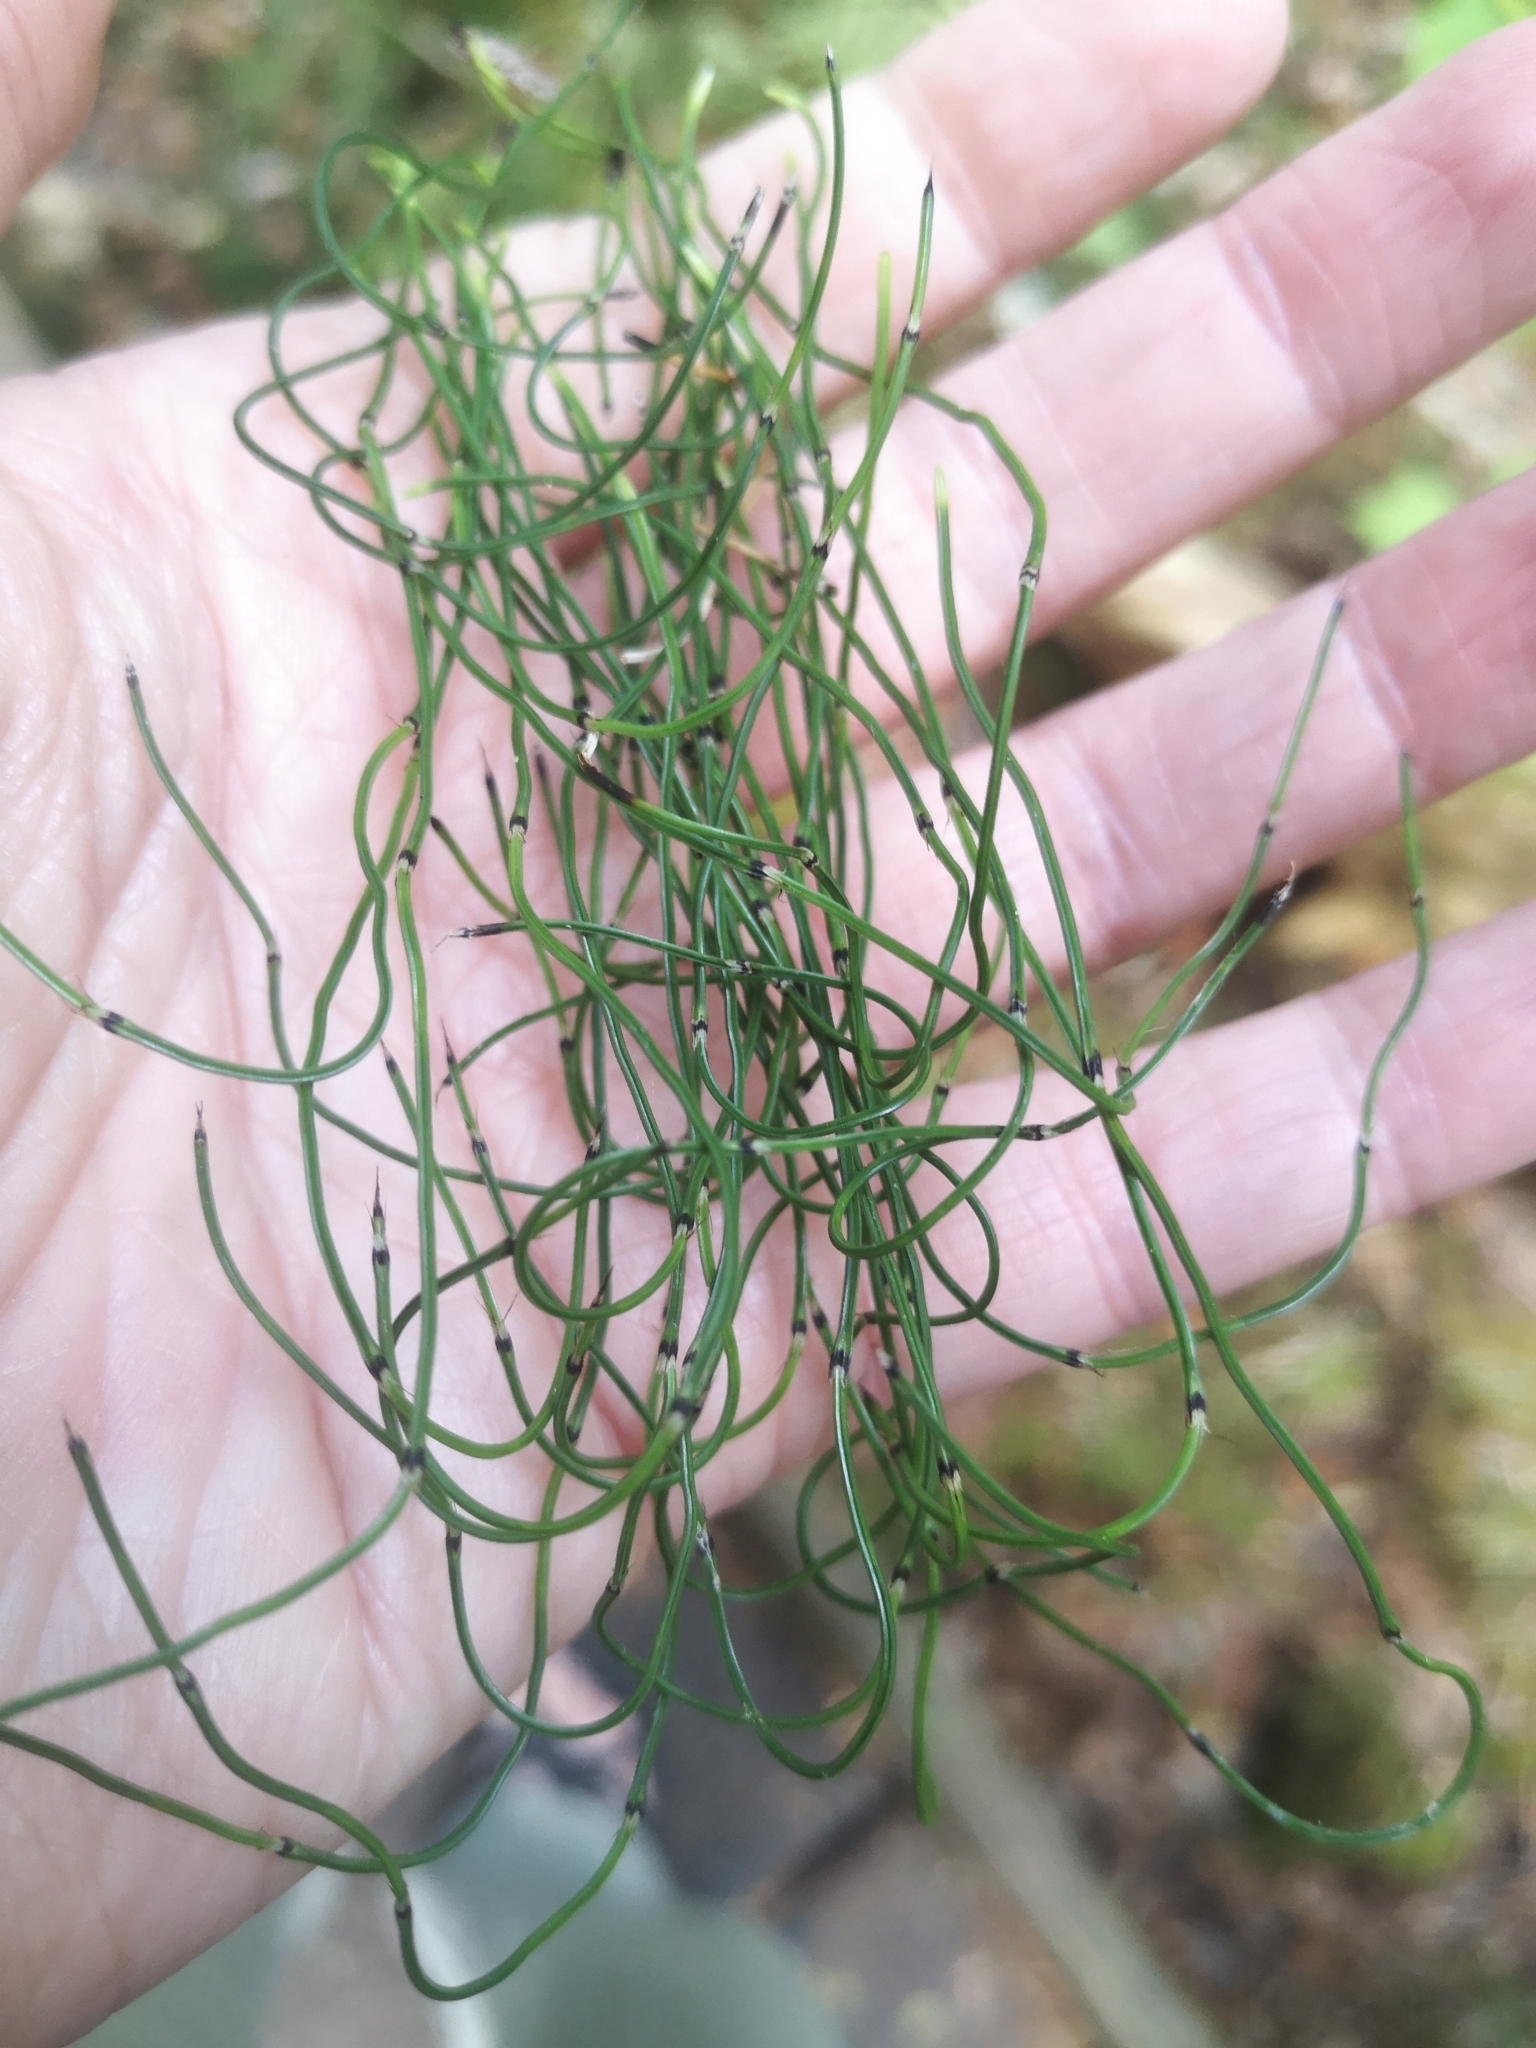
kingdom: Plantae
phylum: Tracheophyta
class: Polypodiopsida
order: Equisetales
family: Equisetaceae
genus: Equisetum
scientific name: Equisetum scirpoides
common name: Delicate horsetail
